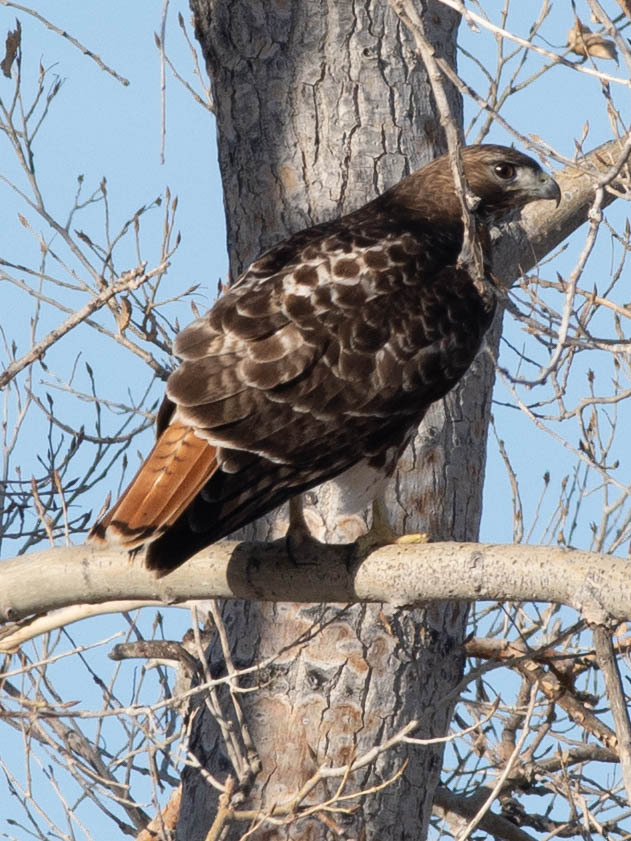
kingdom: Animalia
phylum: Chordata
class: Aves
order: Accipitriformes
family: Accipitridae
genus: Buteo
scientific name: Buteo jamaicensis
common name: Red-tailed hawk
